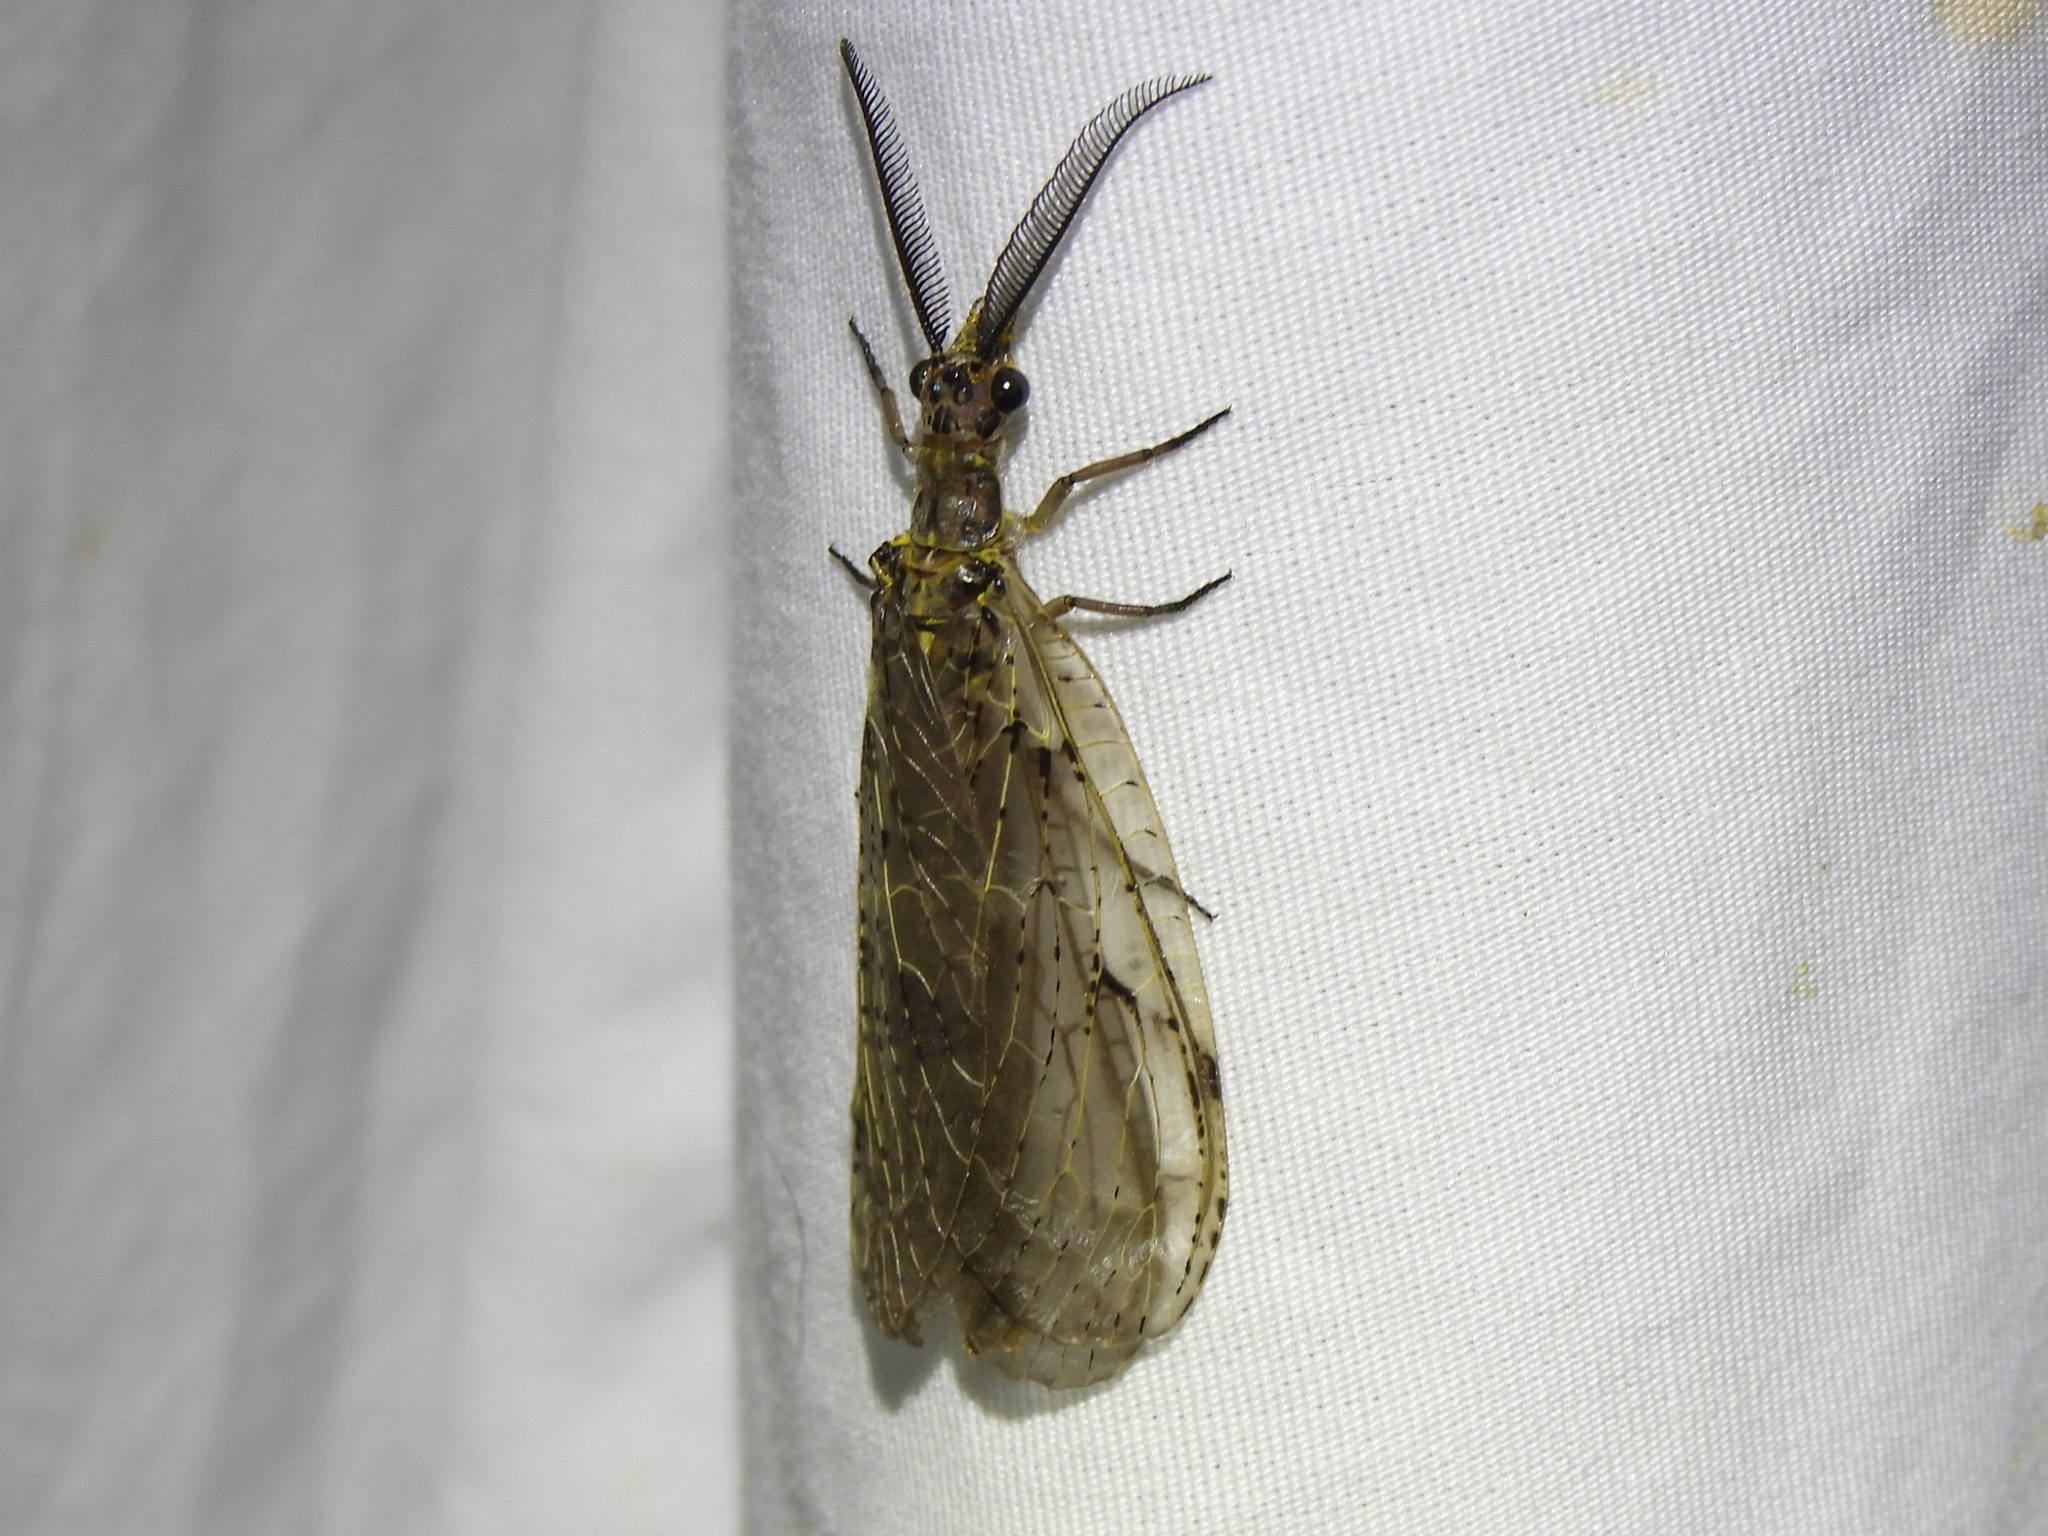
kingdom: Animalia
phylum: Arthropoda
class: Insecta
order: Megaloptera
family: Corydalidae
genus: Chauliodes
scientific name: Chauliodes rastricornis
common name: Spring fishfly
